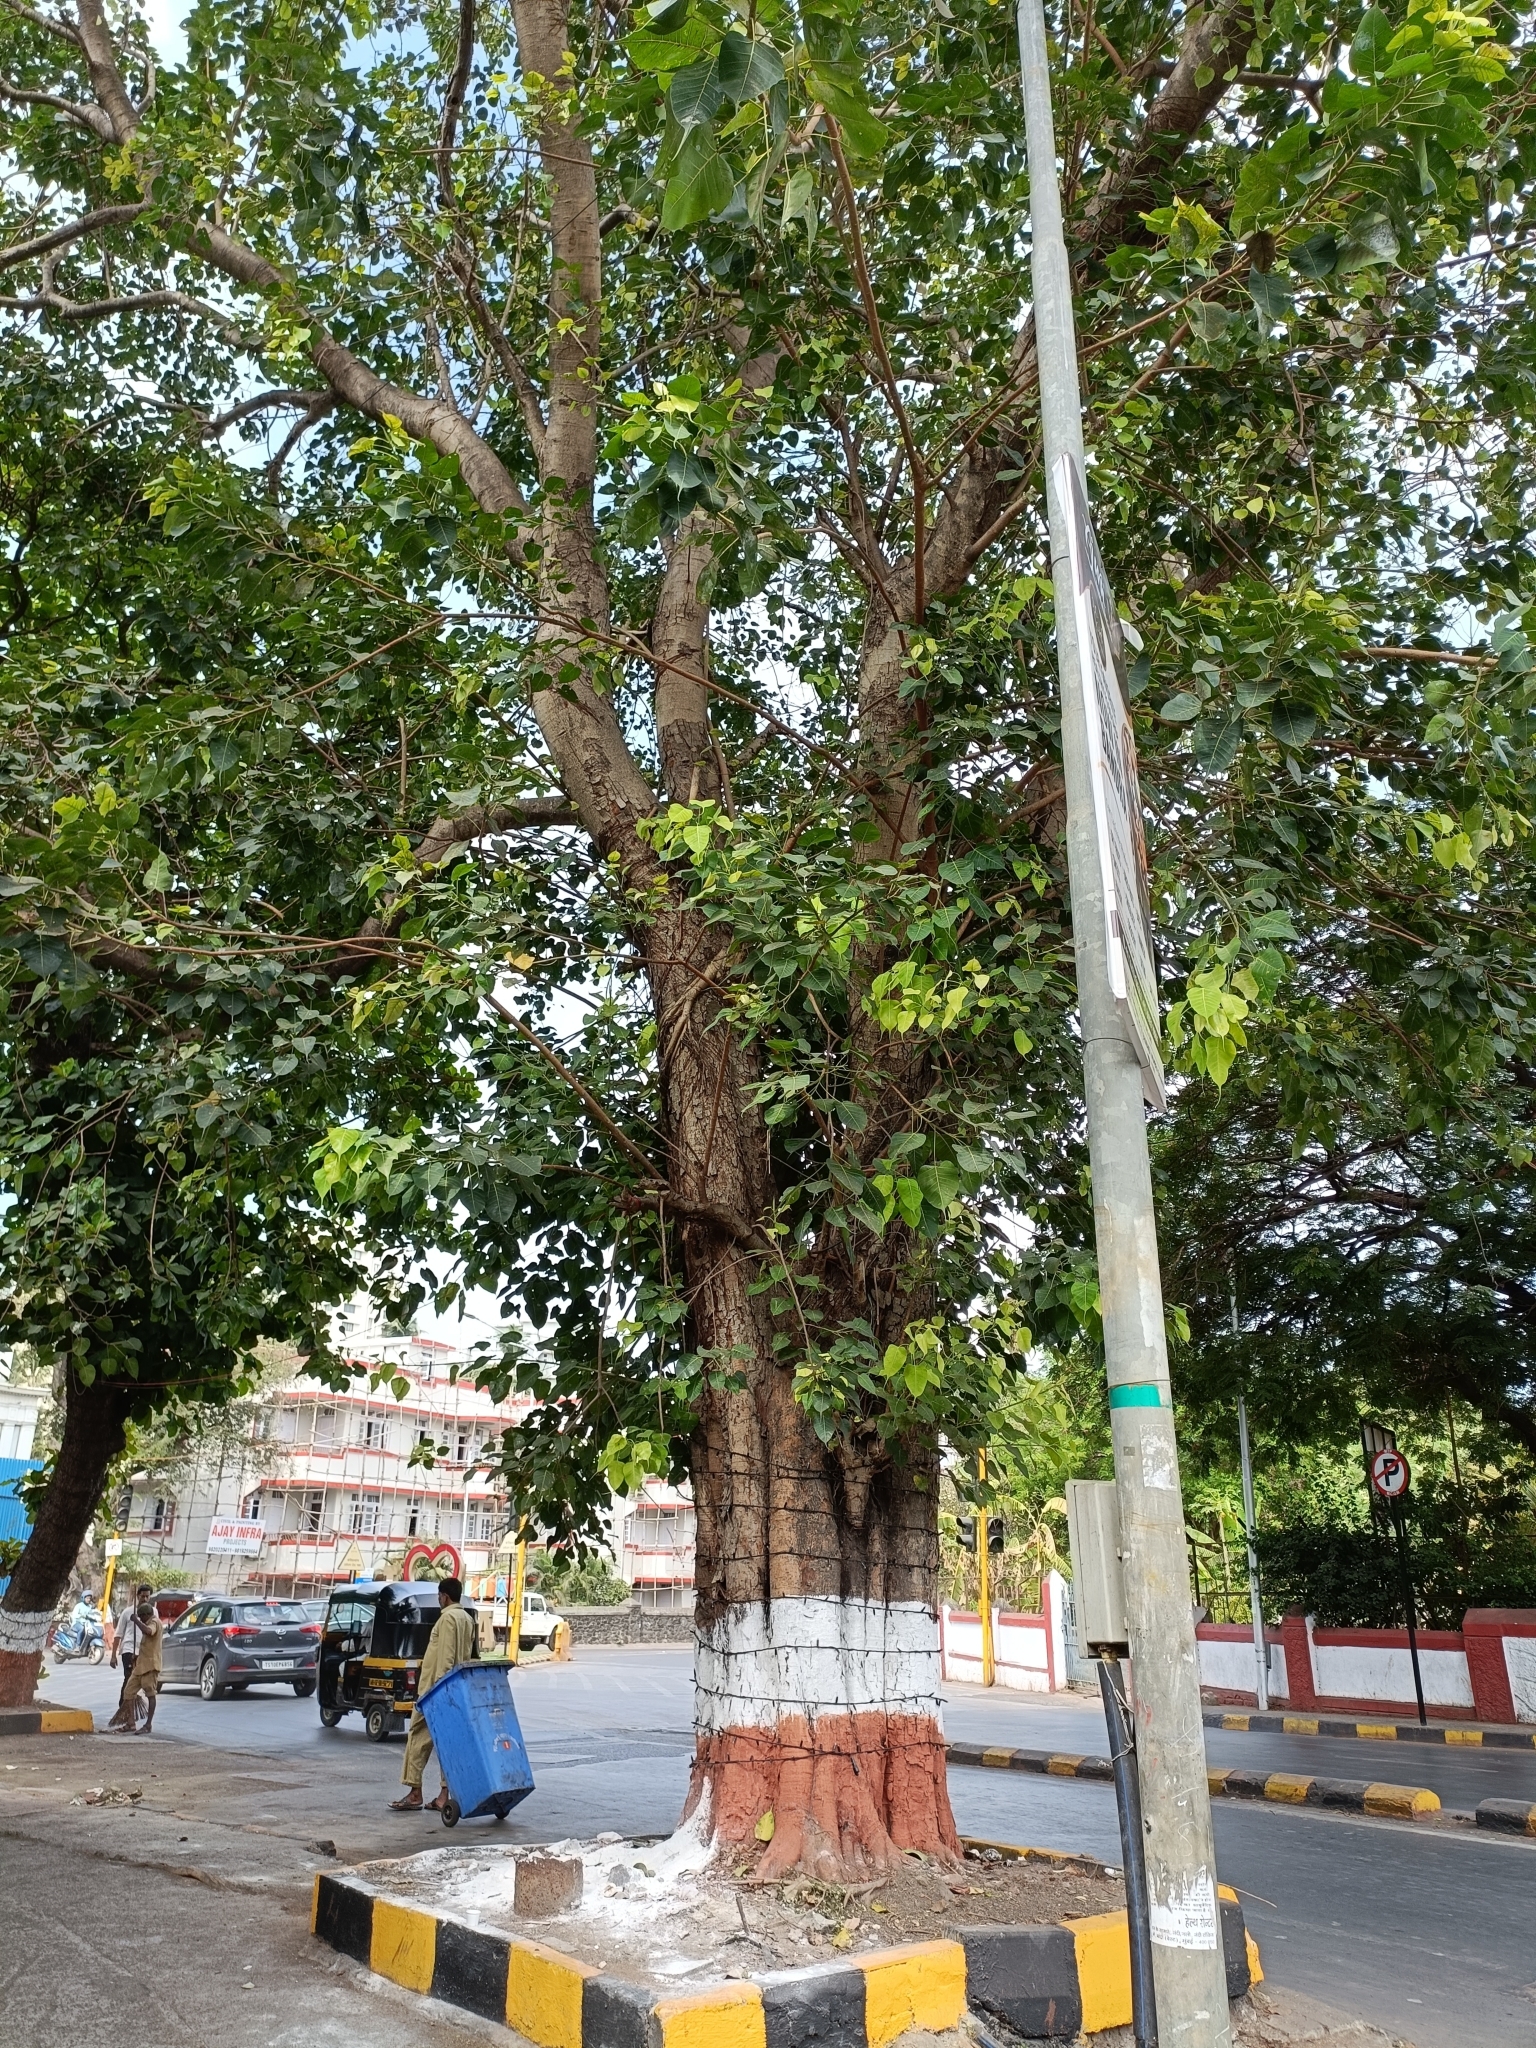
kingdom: Plantae
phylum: Tracheophyta
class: Magnoliopsida
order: Rosales
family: Moraceae
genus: Ficus
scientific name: Ficus religiosa
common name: Bodhi tree
